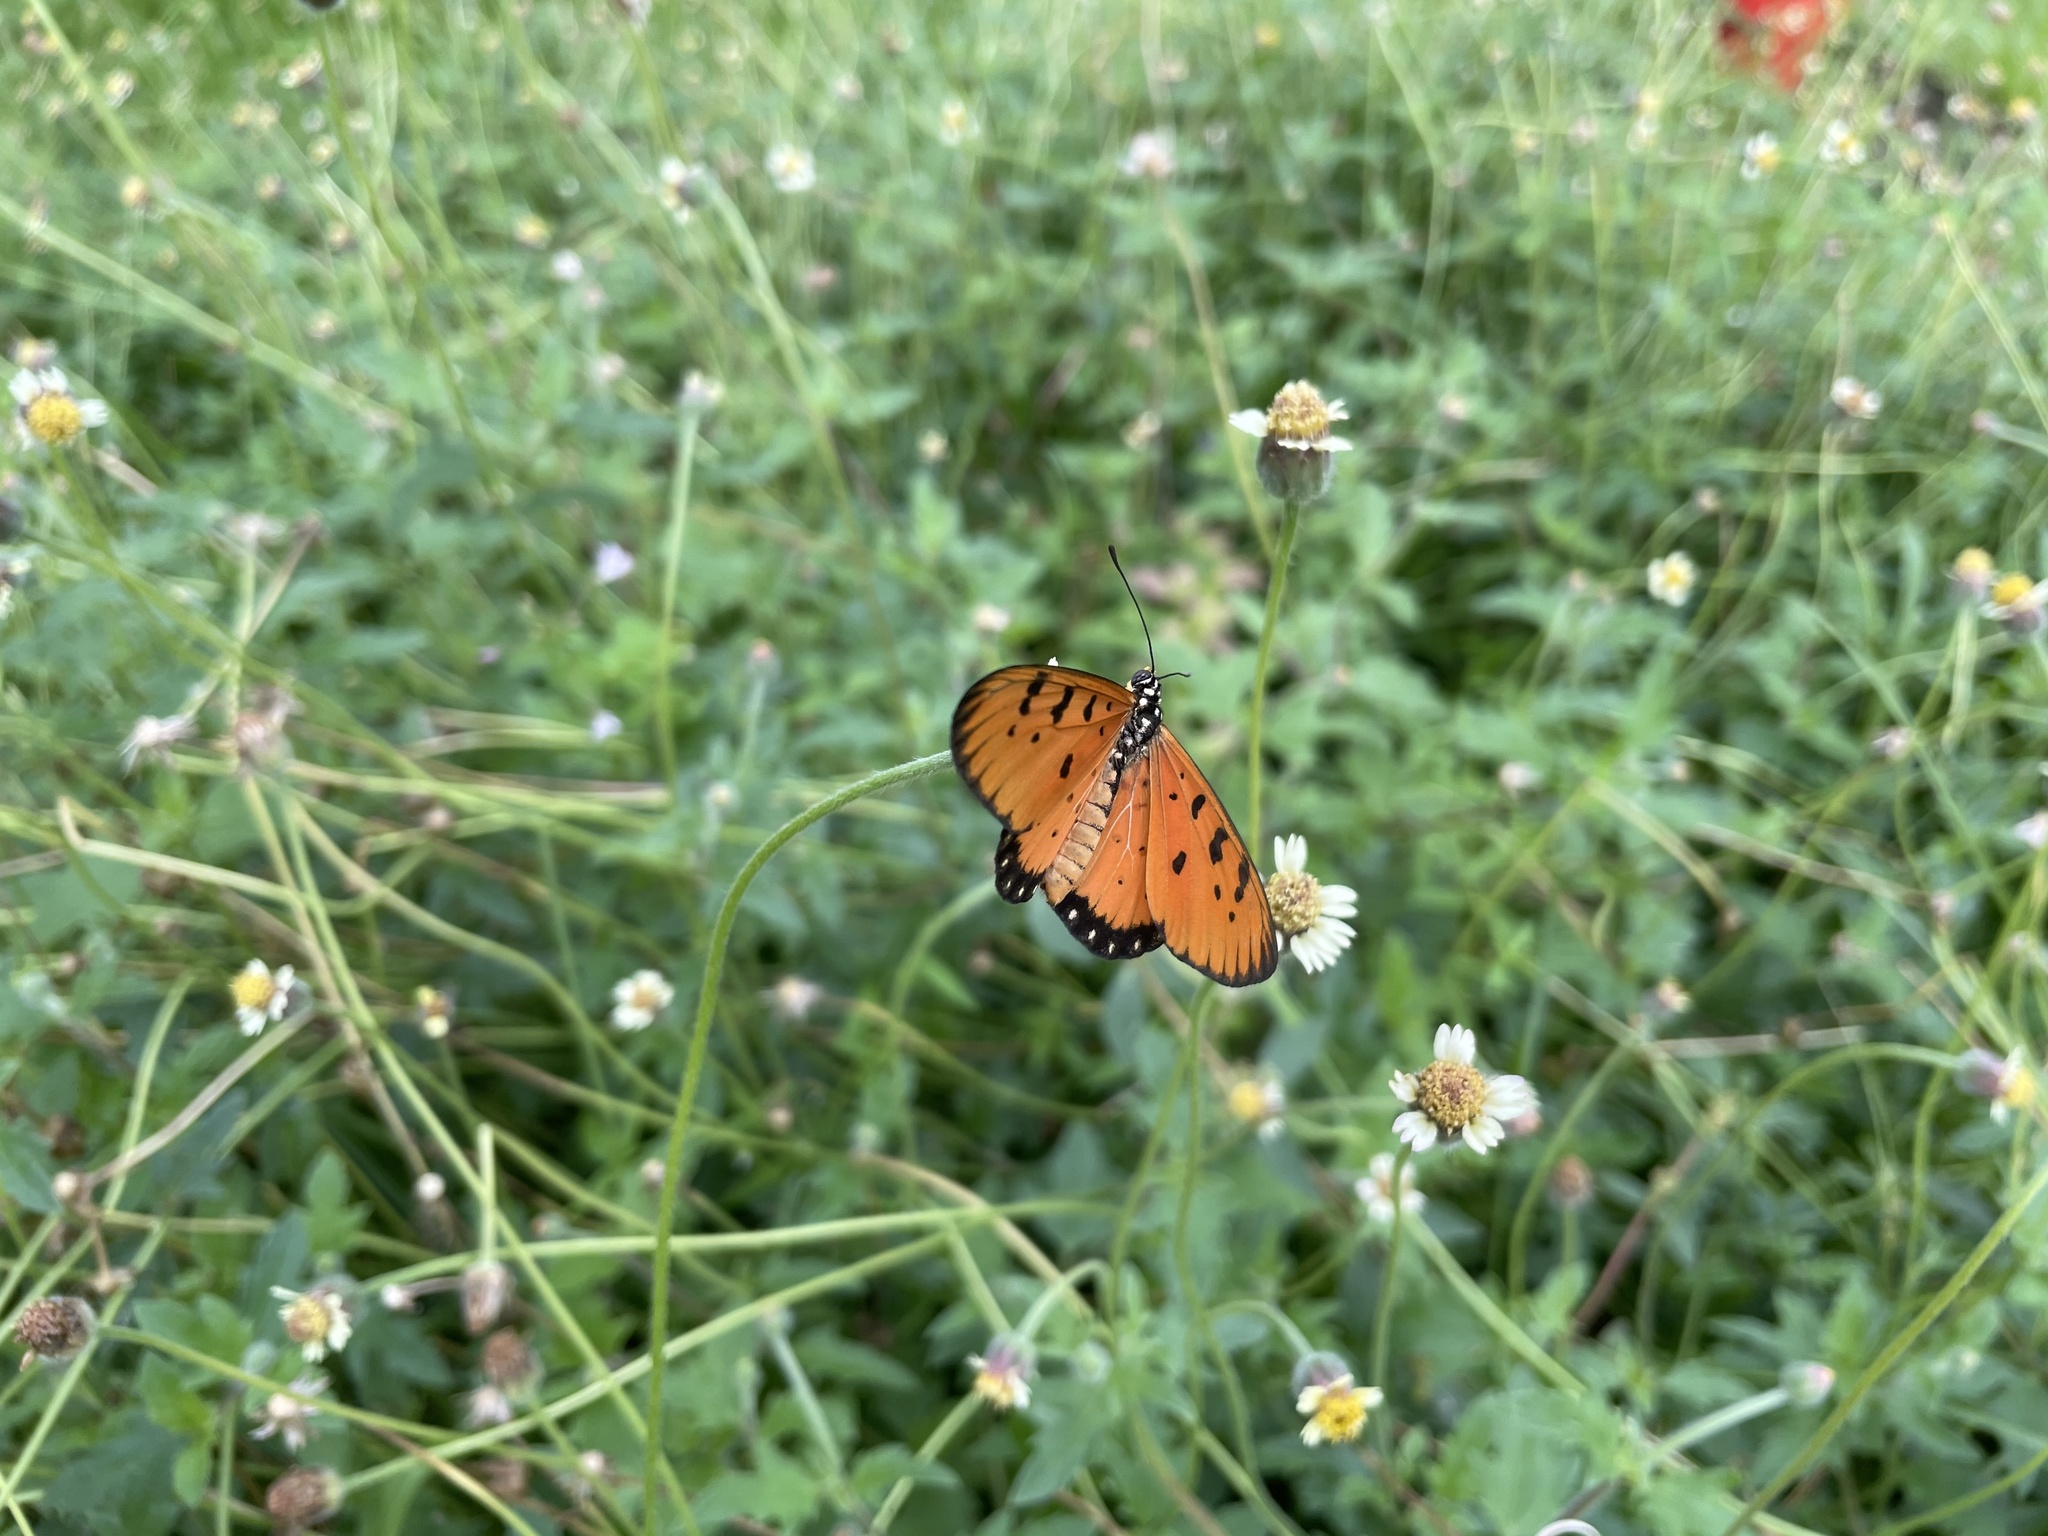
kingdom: Animalia
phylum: Arthropoda
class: Insecta
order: Lepidoptera
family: Nymphalidae
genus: Acraea
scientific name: Acraea terpsicore
